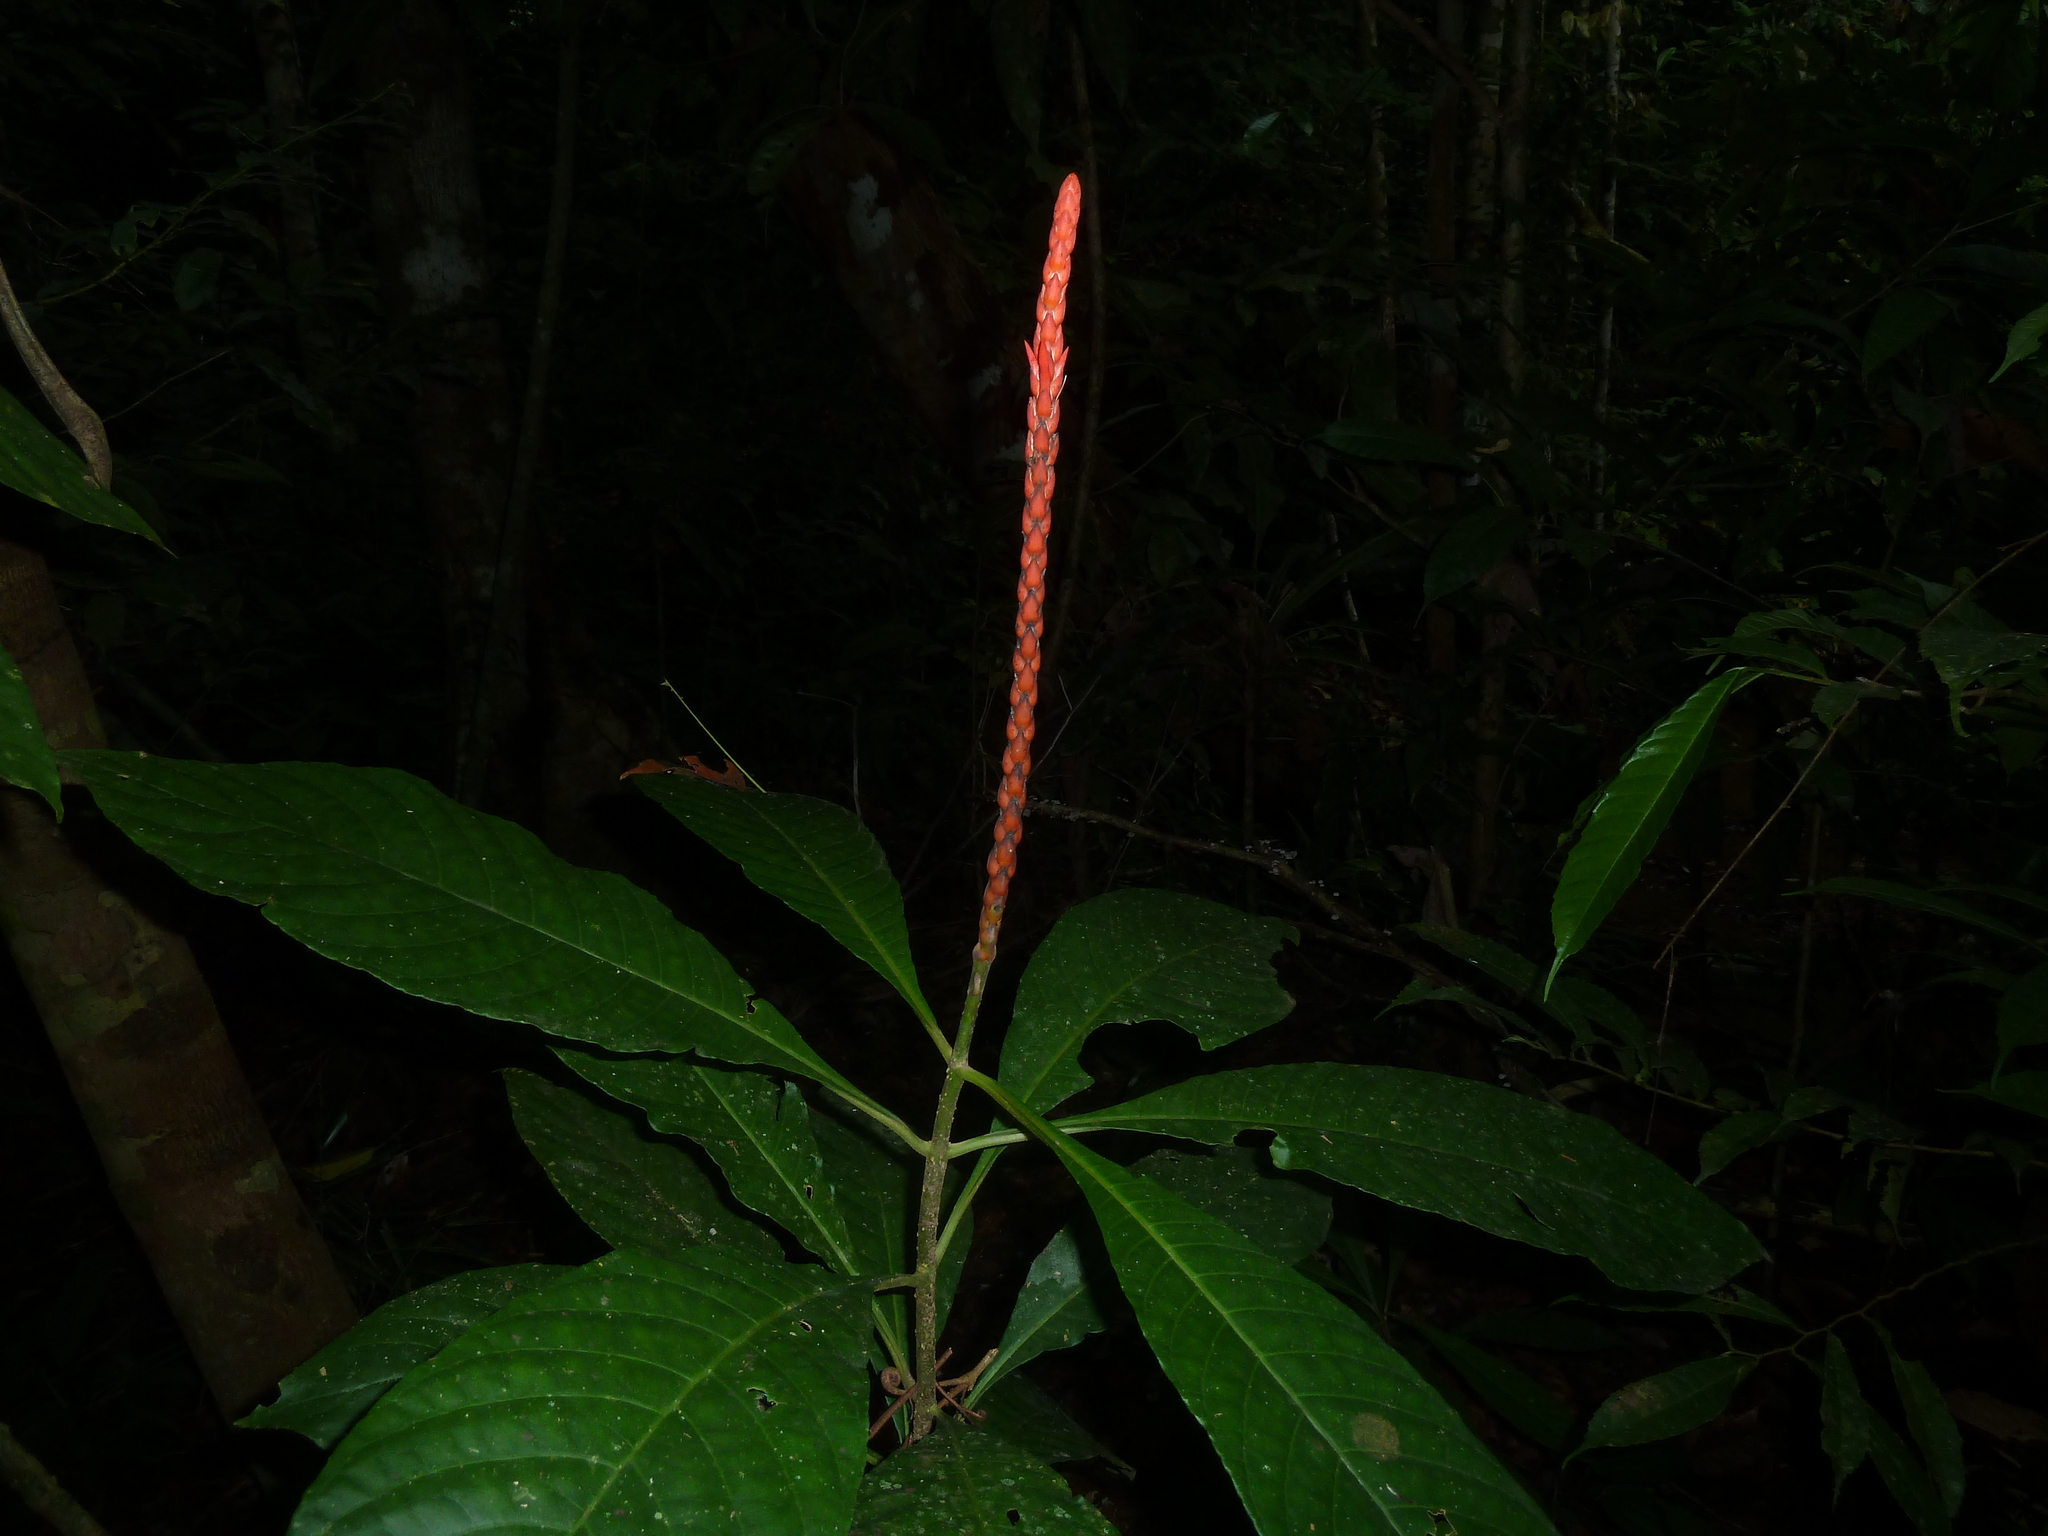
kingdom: Plantae
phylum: Tracheophyta
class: Magnoliopsida
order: Lamiales
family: Acanthaceae
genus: Aphelandra
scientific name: Aphelandra lingua-bovis
